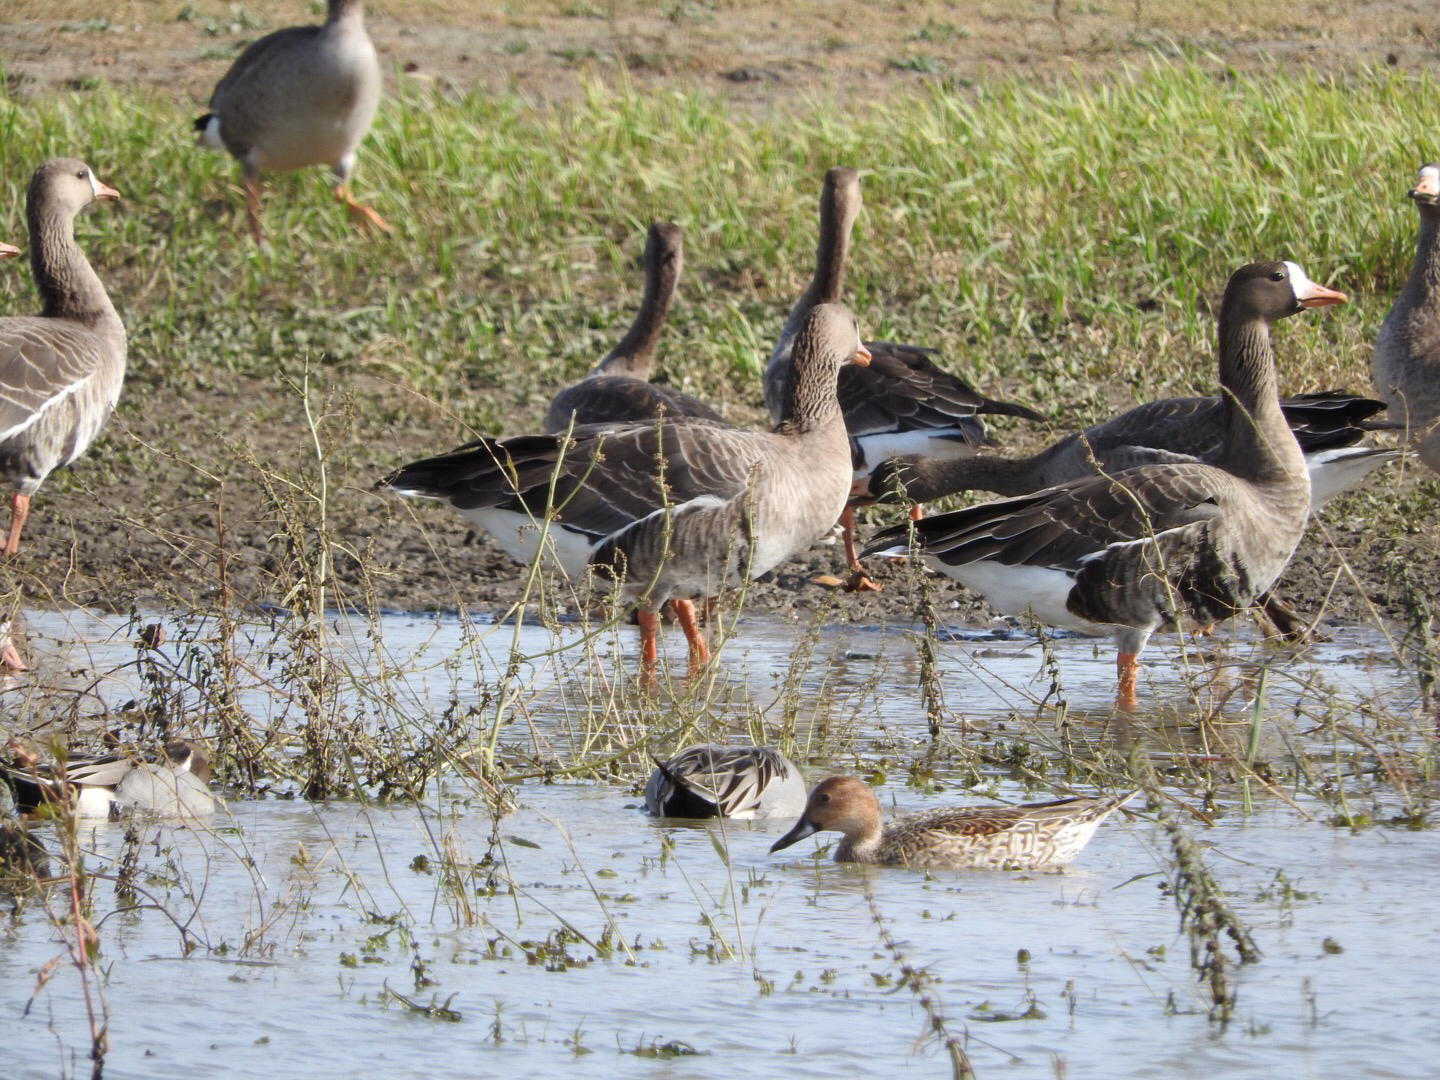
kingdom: Animalia
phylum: Chordata
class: Aves
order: Anseriformes
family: Anatidae
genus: Anas
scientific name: Anas acuta
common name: Northern pintail
